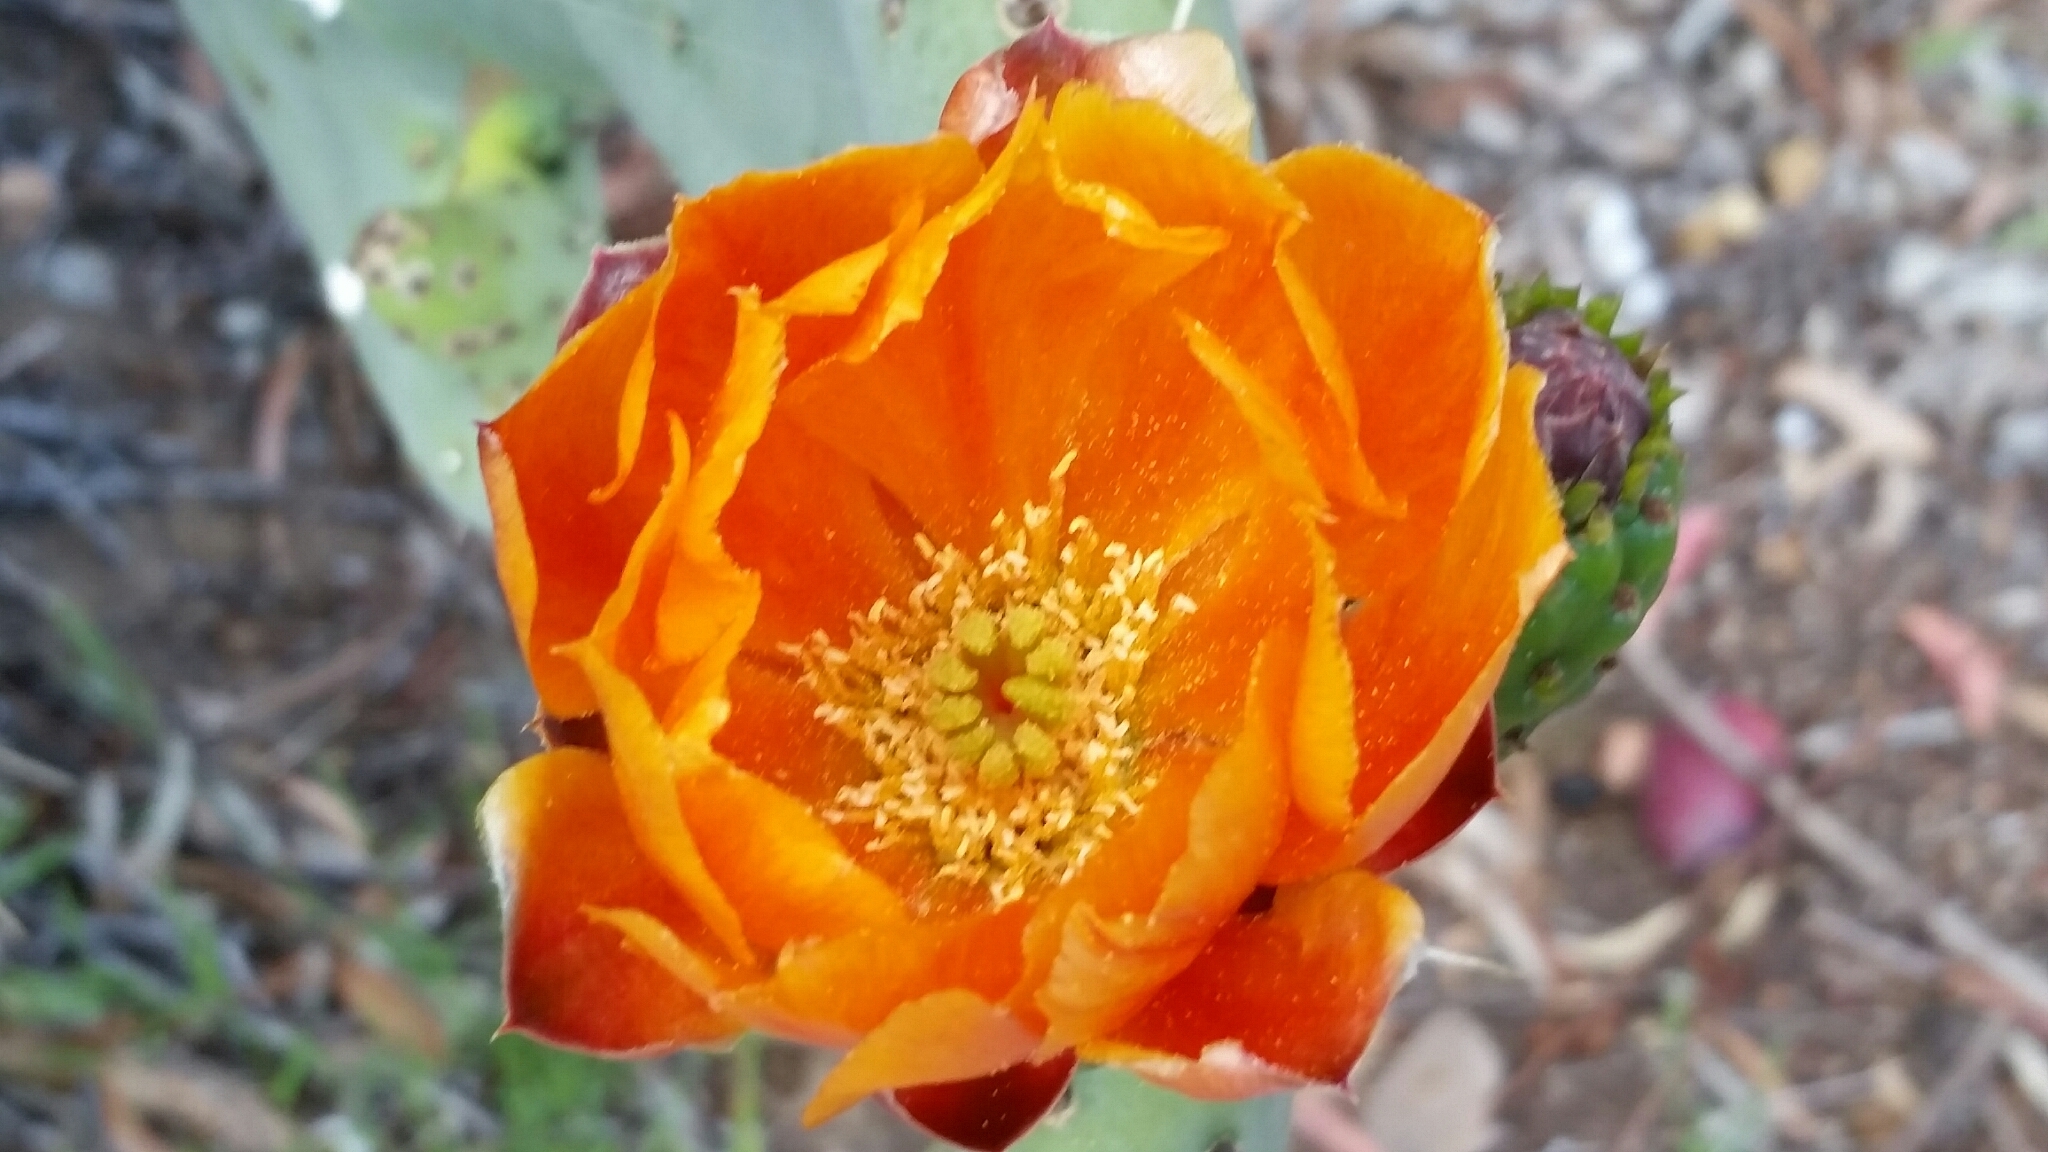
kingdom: Plantae
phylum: Tracheophyta
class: Magnoliopsida
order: Caryophyllales
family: Cactaceae
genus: Opuntia
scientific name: Opuntia ficus-indica
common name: Barbary fig
